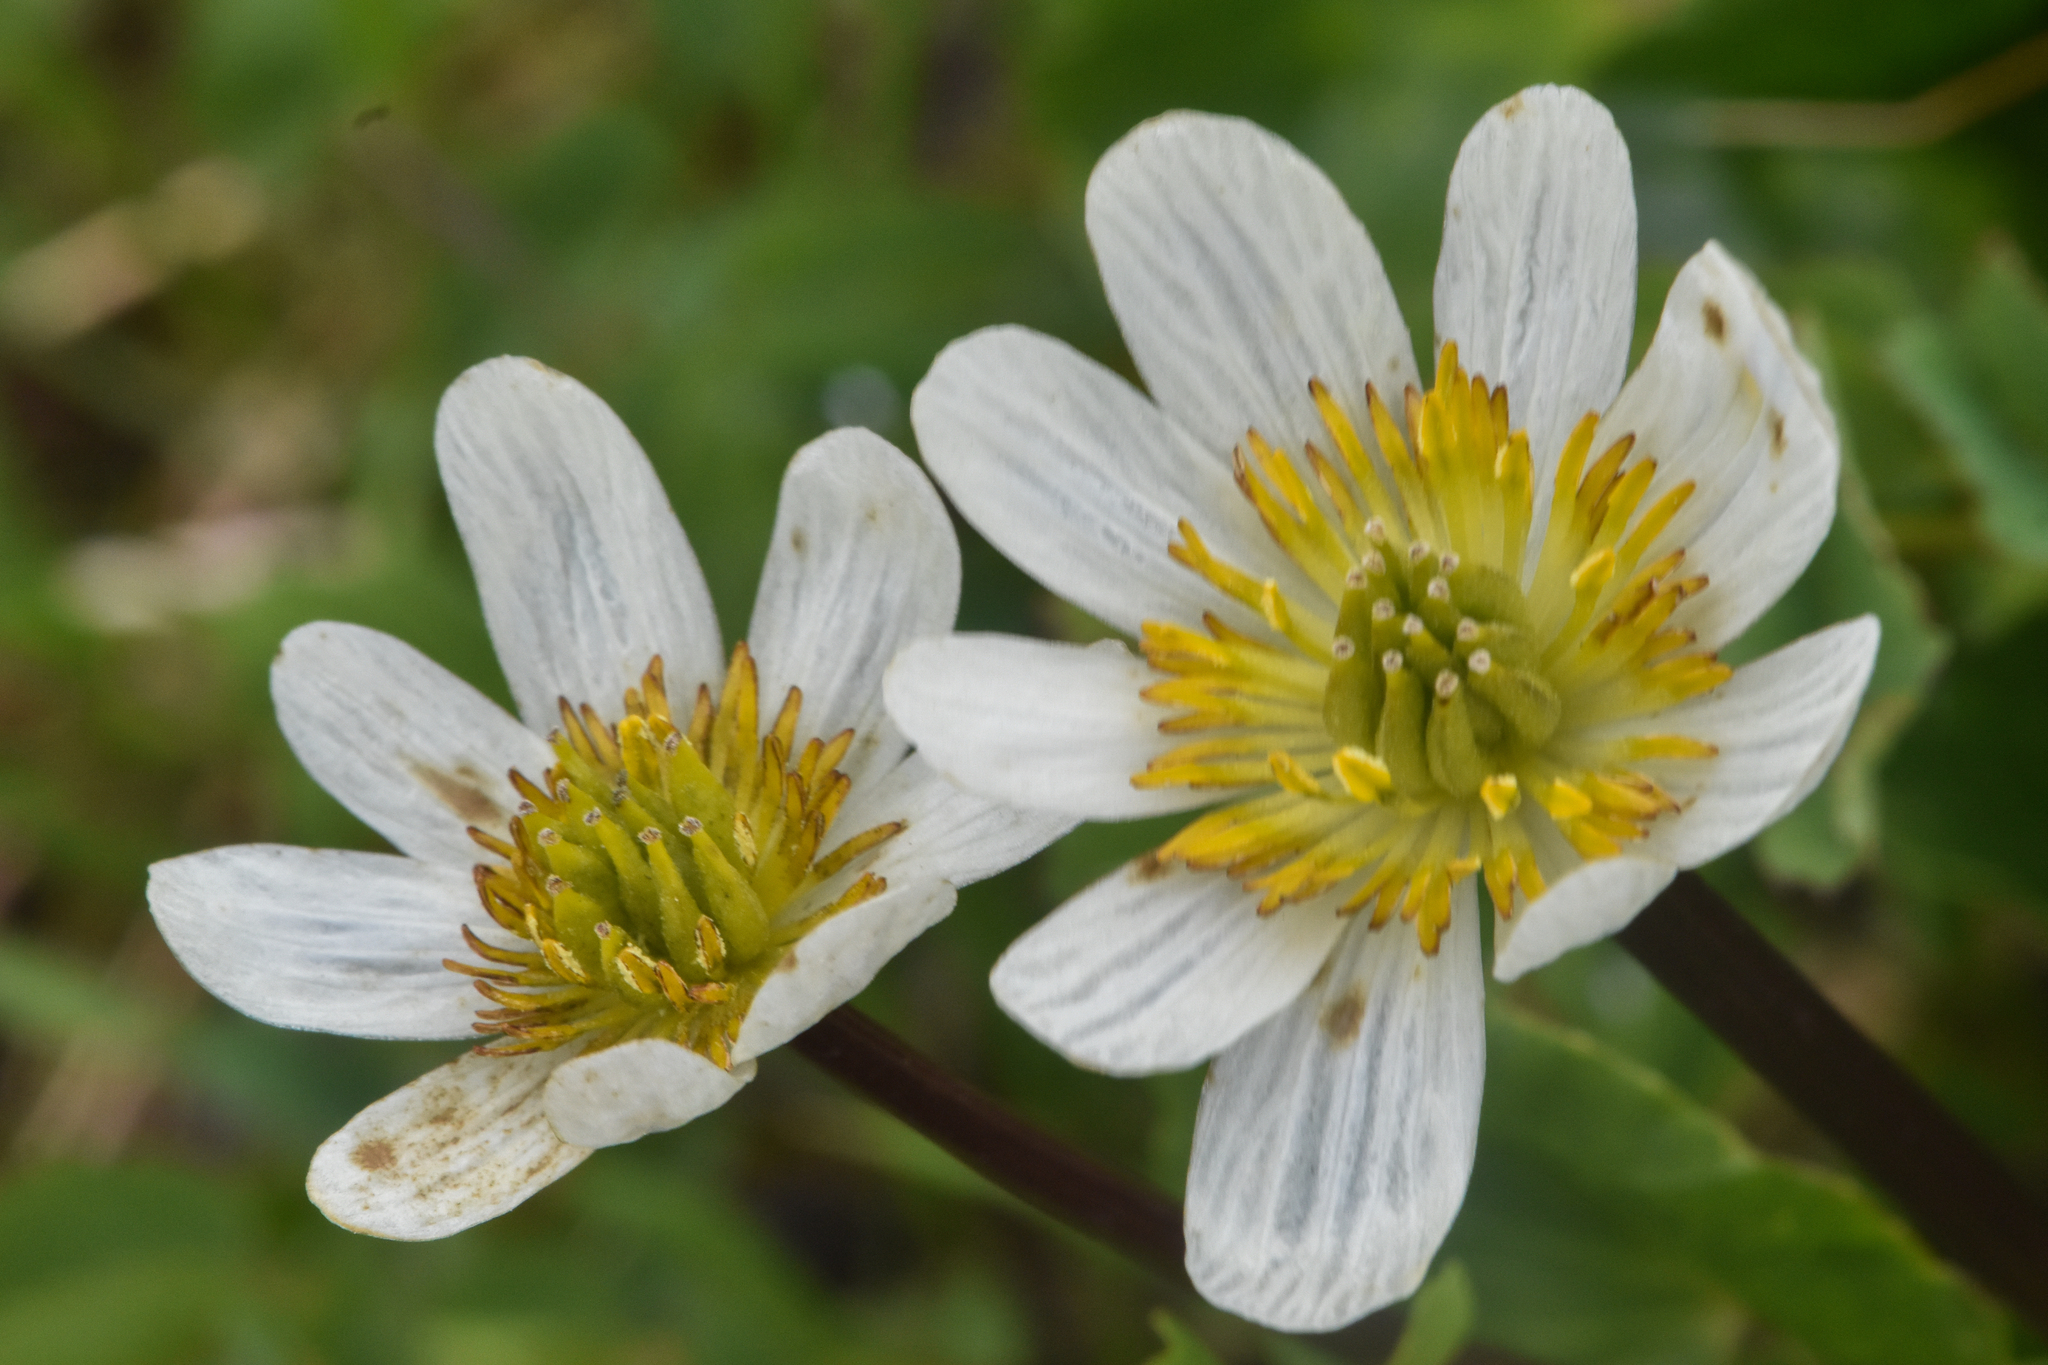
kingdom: Plantae
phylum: Tracheophyta
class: Magnoliopsida
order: Ranunculales
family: Ranunculaceae
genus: Caltha
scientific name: Caltha leptosepala
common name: Elkslip
